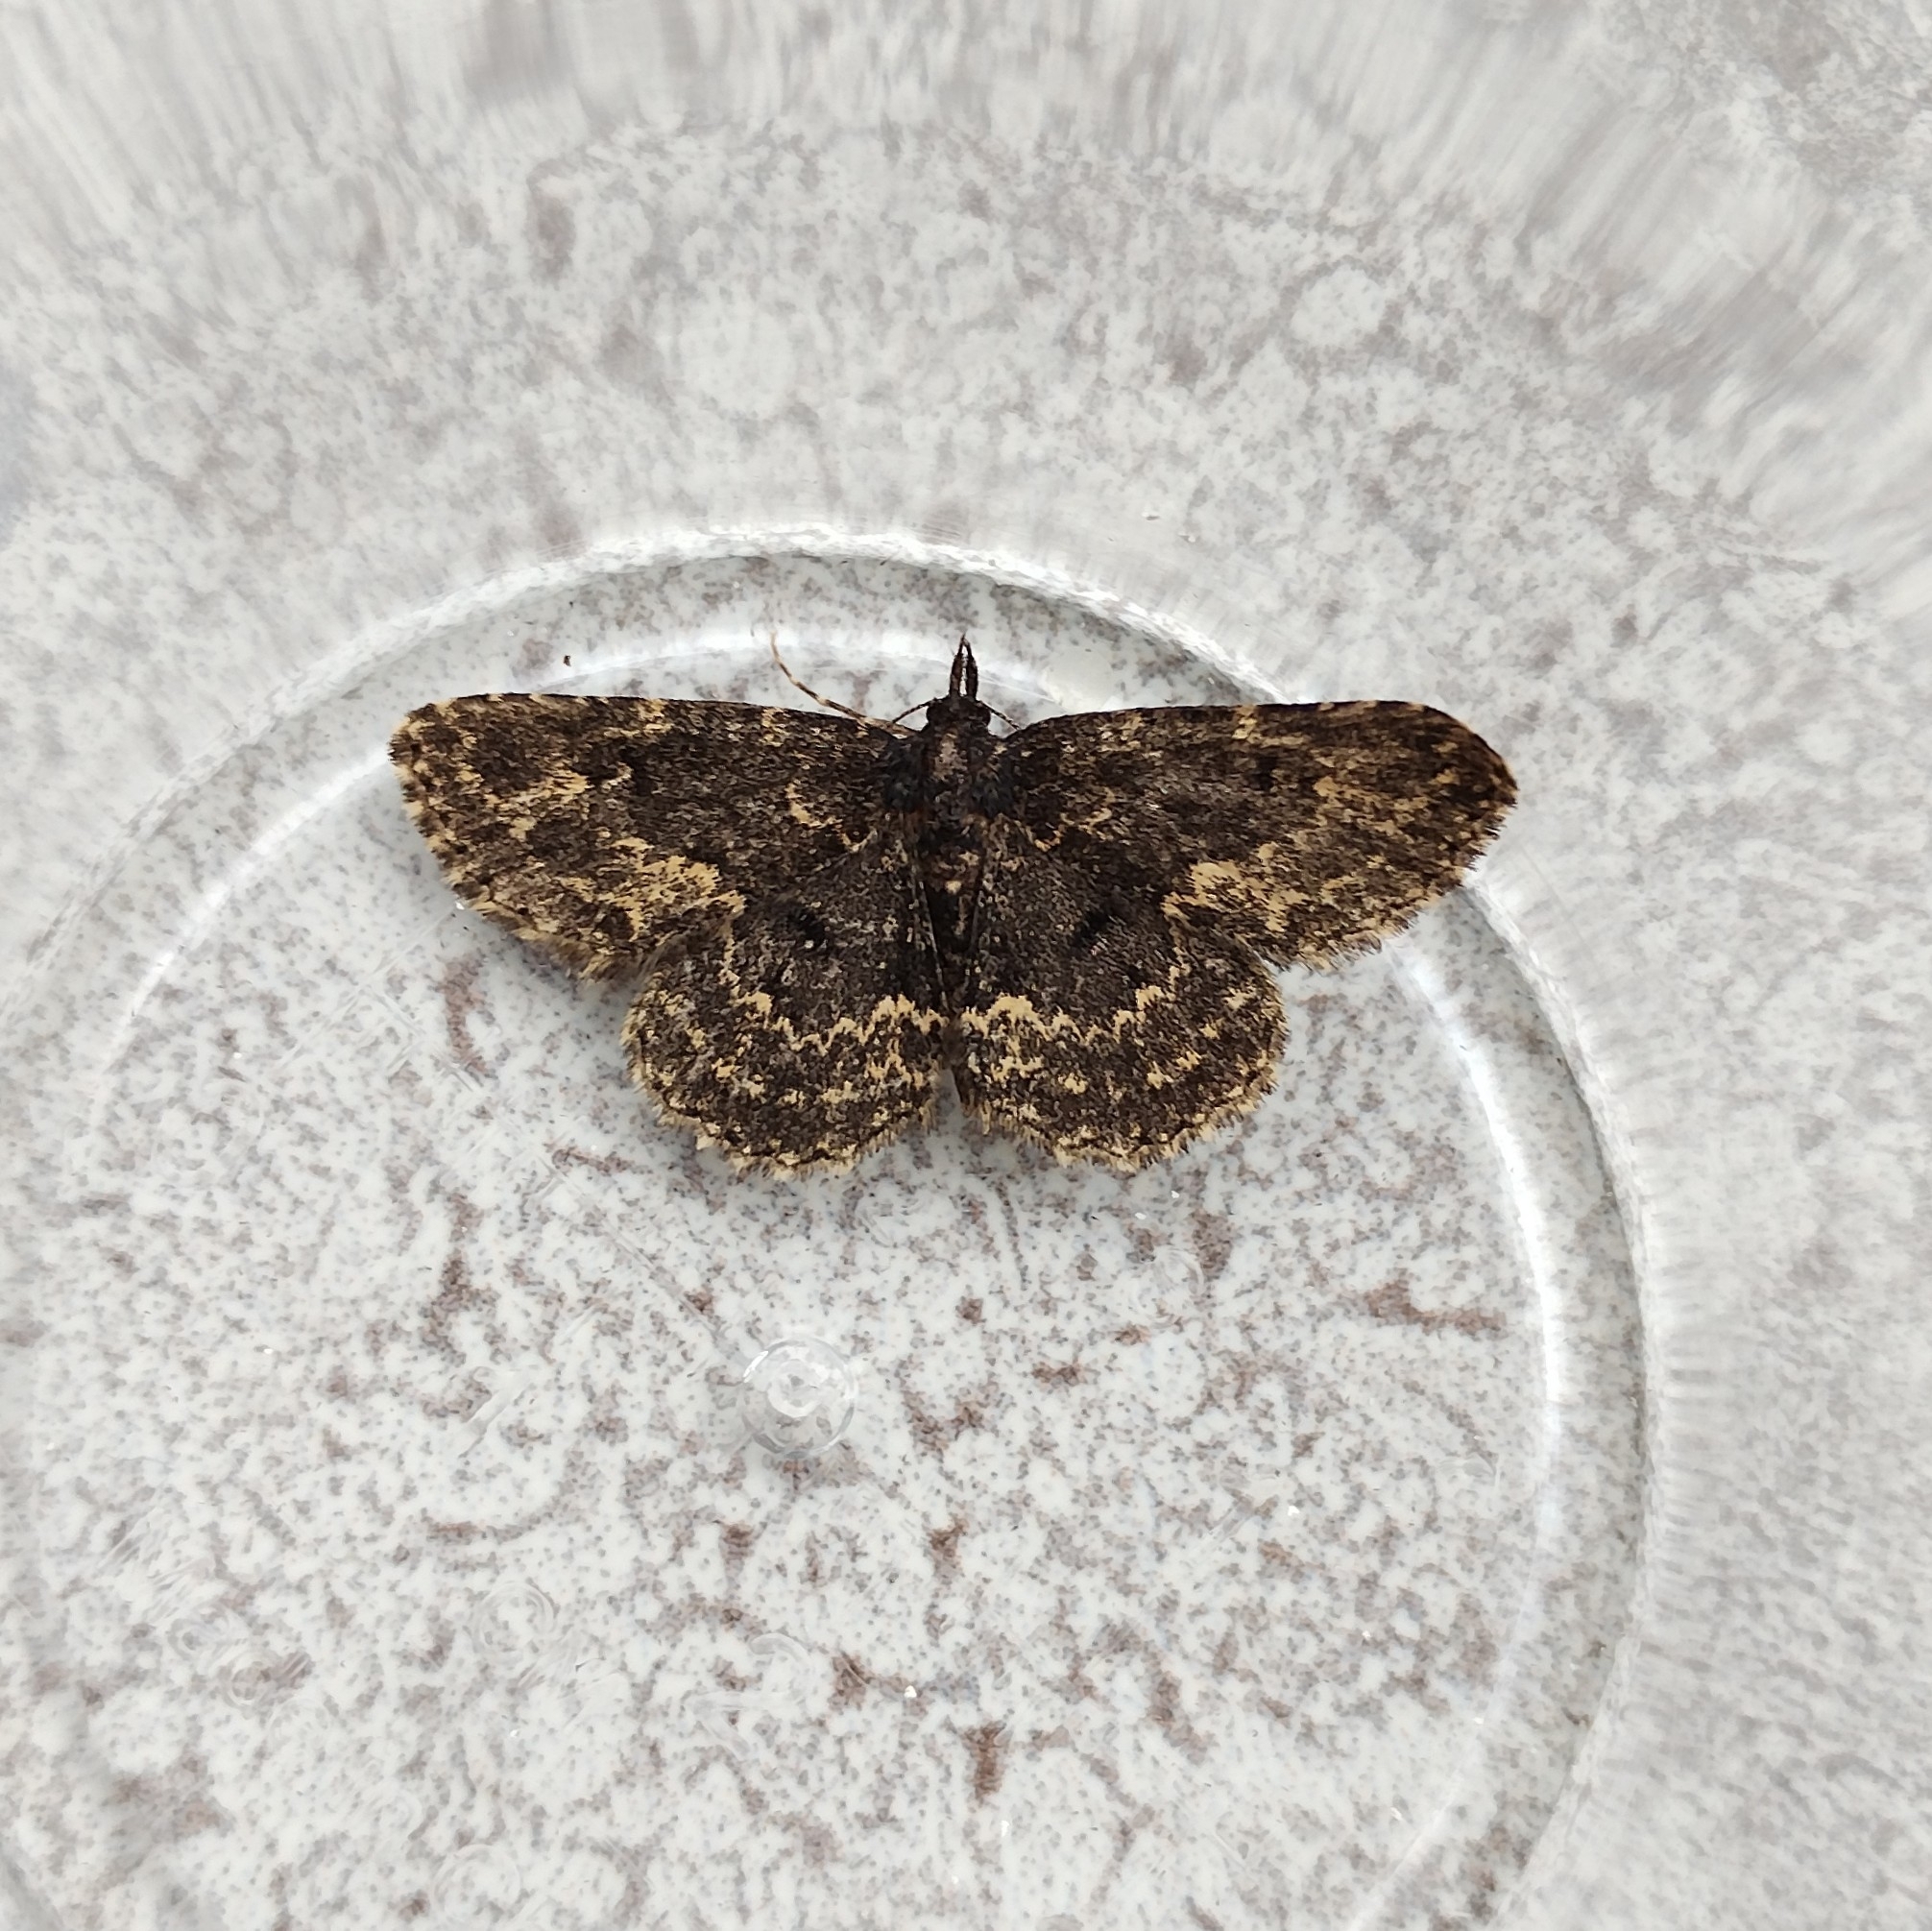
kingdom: Animalia
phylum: Arthropoda
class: Insecta
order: Lepidoptera
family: Erebidae
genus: Parascotia
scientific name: Parascotia fuliginaria
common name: Waved black
